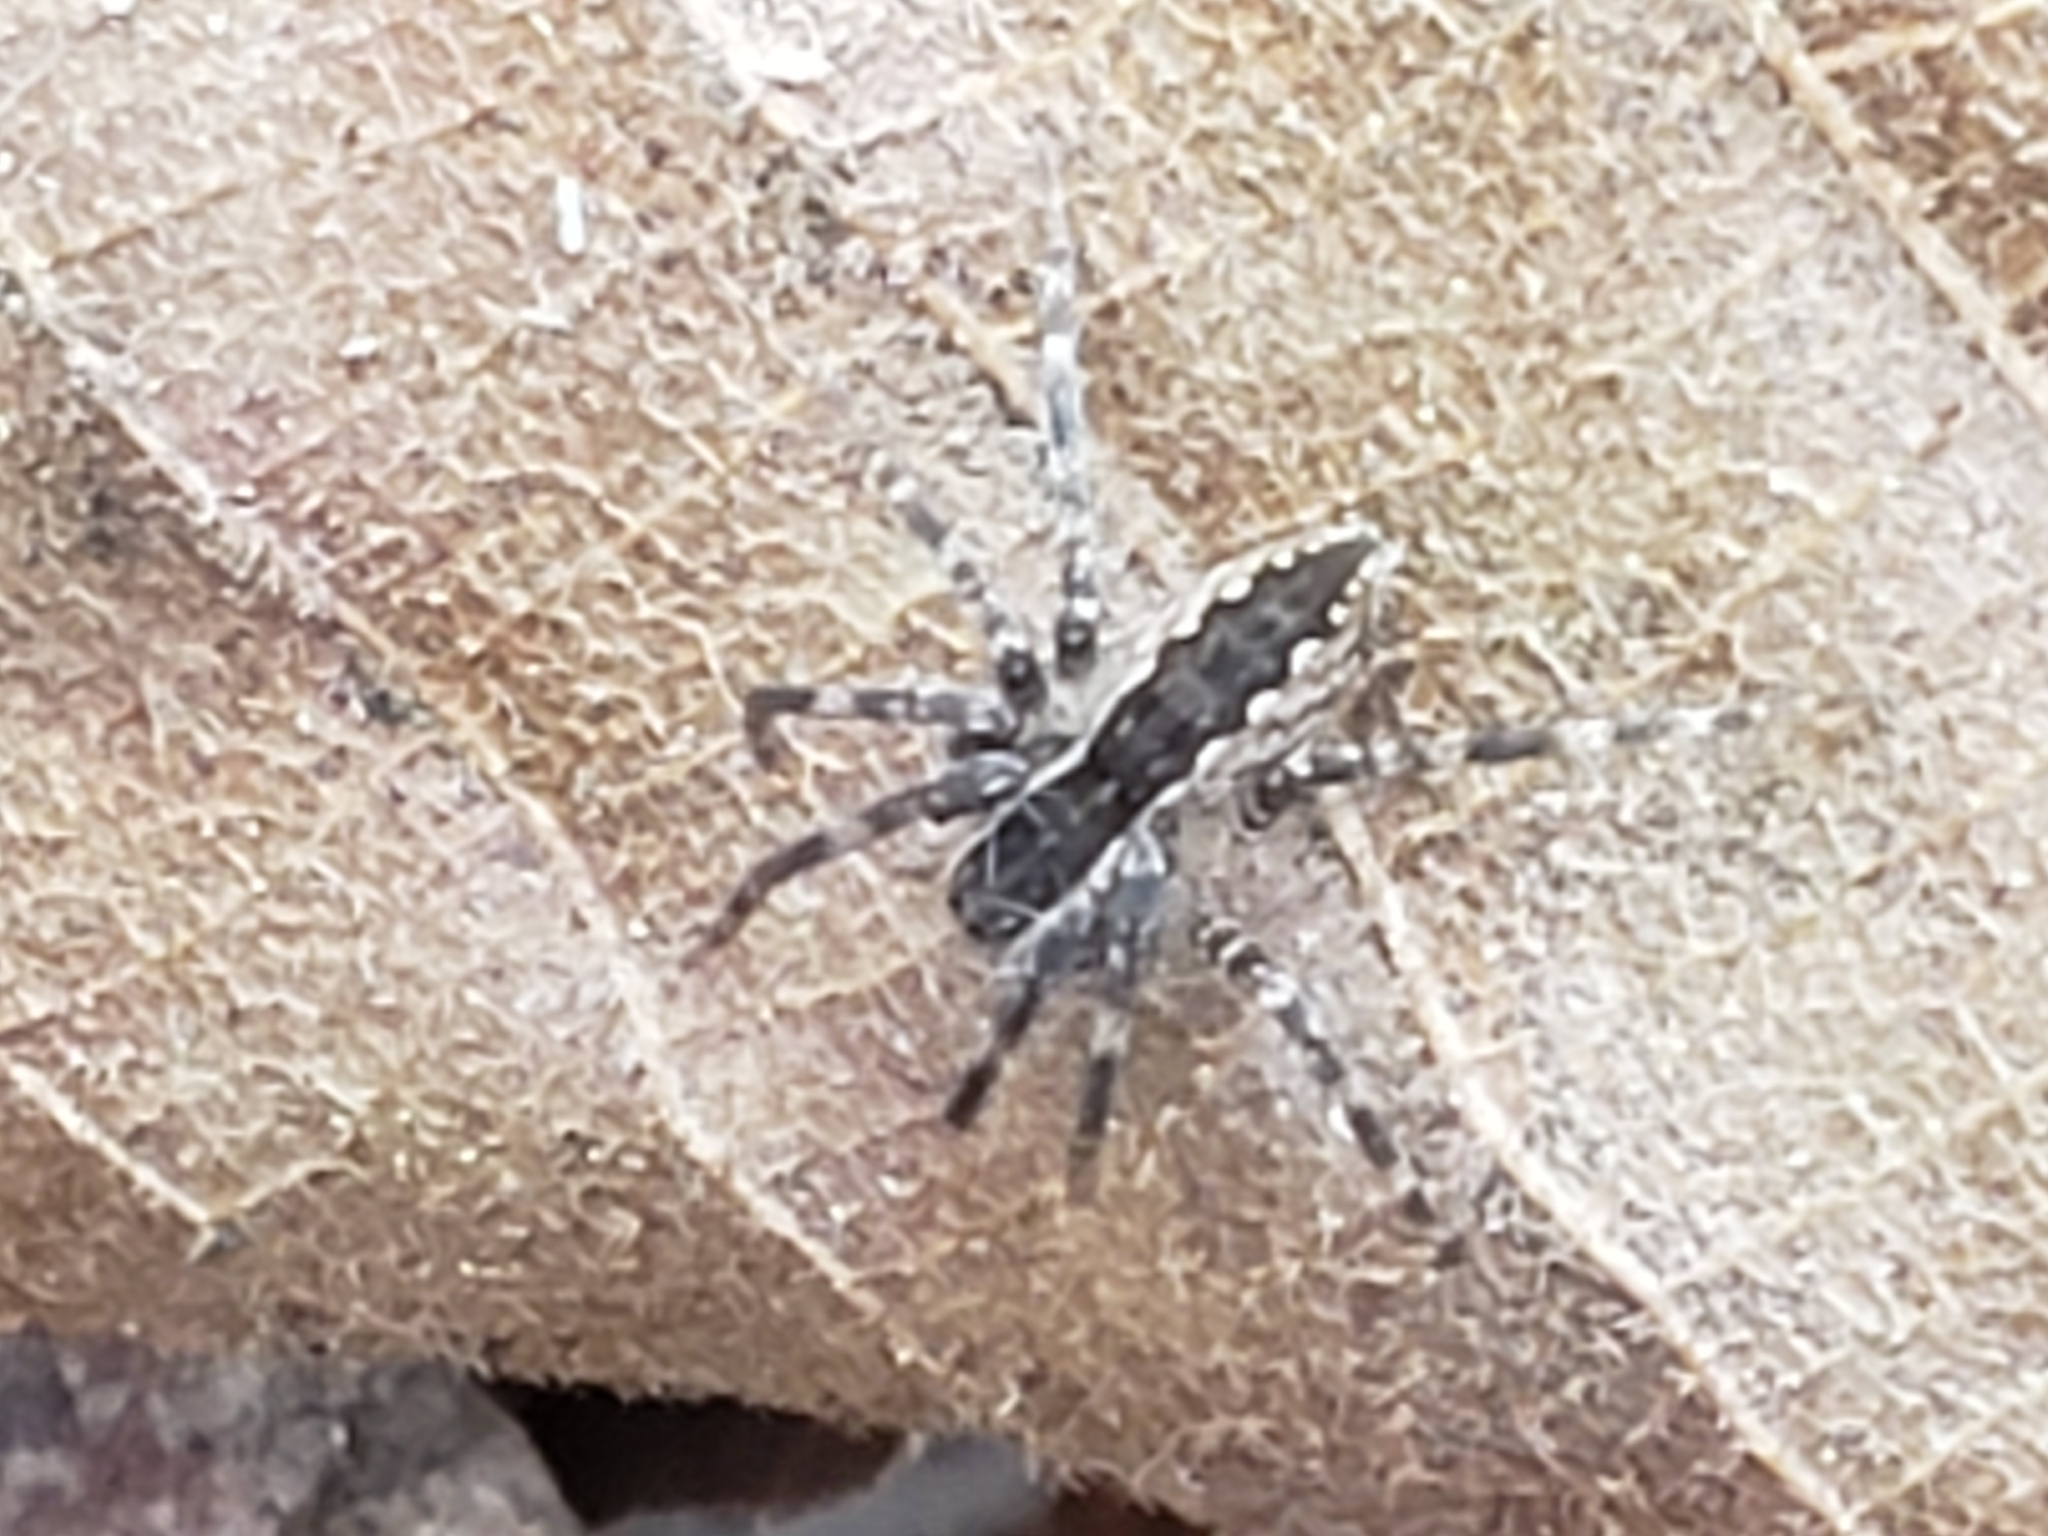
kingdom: Animalia
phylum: Arthropoda
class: Arachnida
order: Araneae
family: Pisauridae
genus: Pisaurina
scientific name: Pisaurina mira
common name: American nursery web spider
